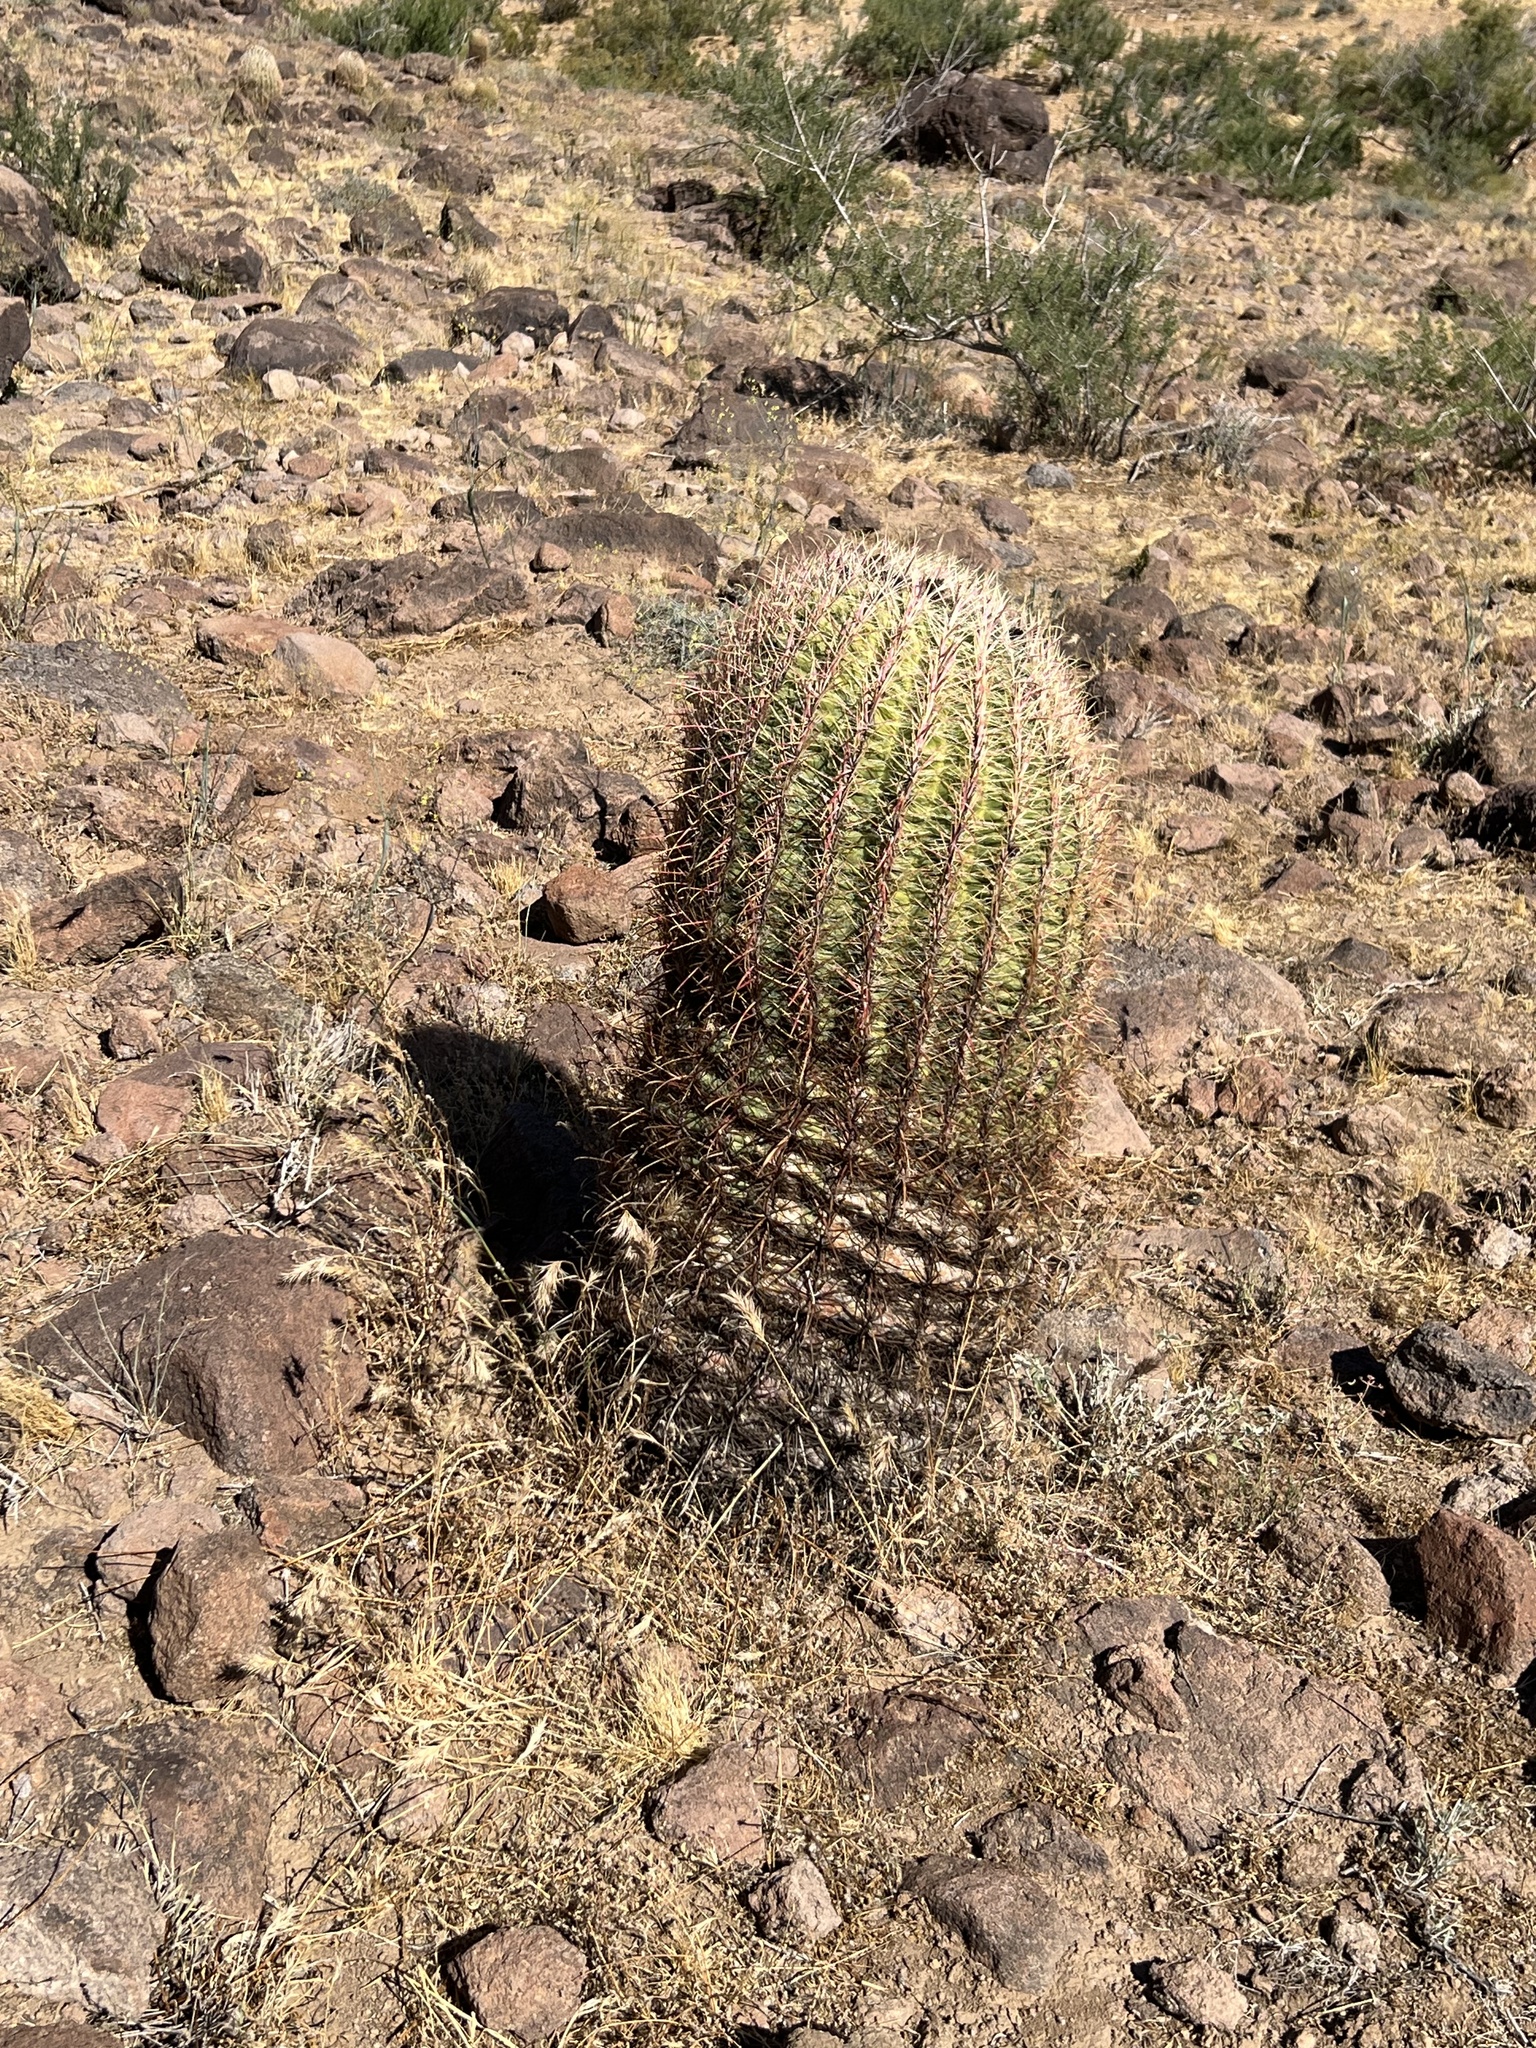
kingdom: Plantae
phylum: Tracheophyta
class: Magnoliopsida
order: Caryophyllales
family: Cactaceae
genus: Ferocactus
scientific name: Ferocactus cylindraceus
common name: California barrel cactus
